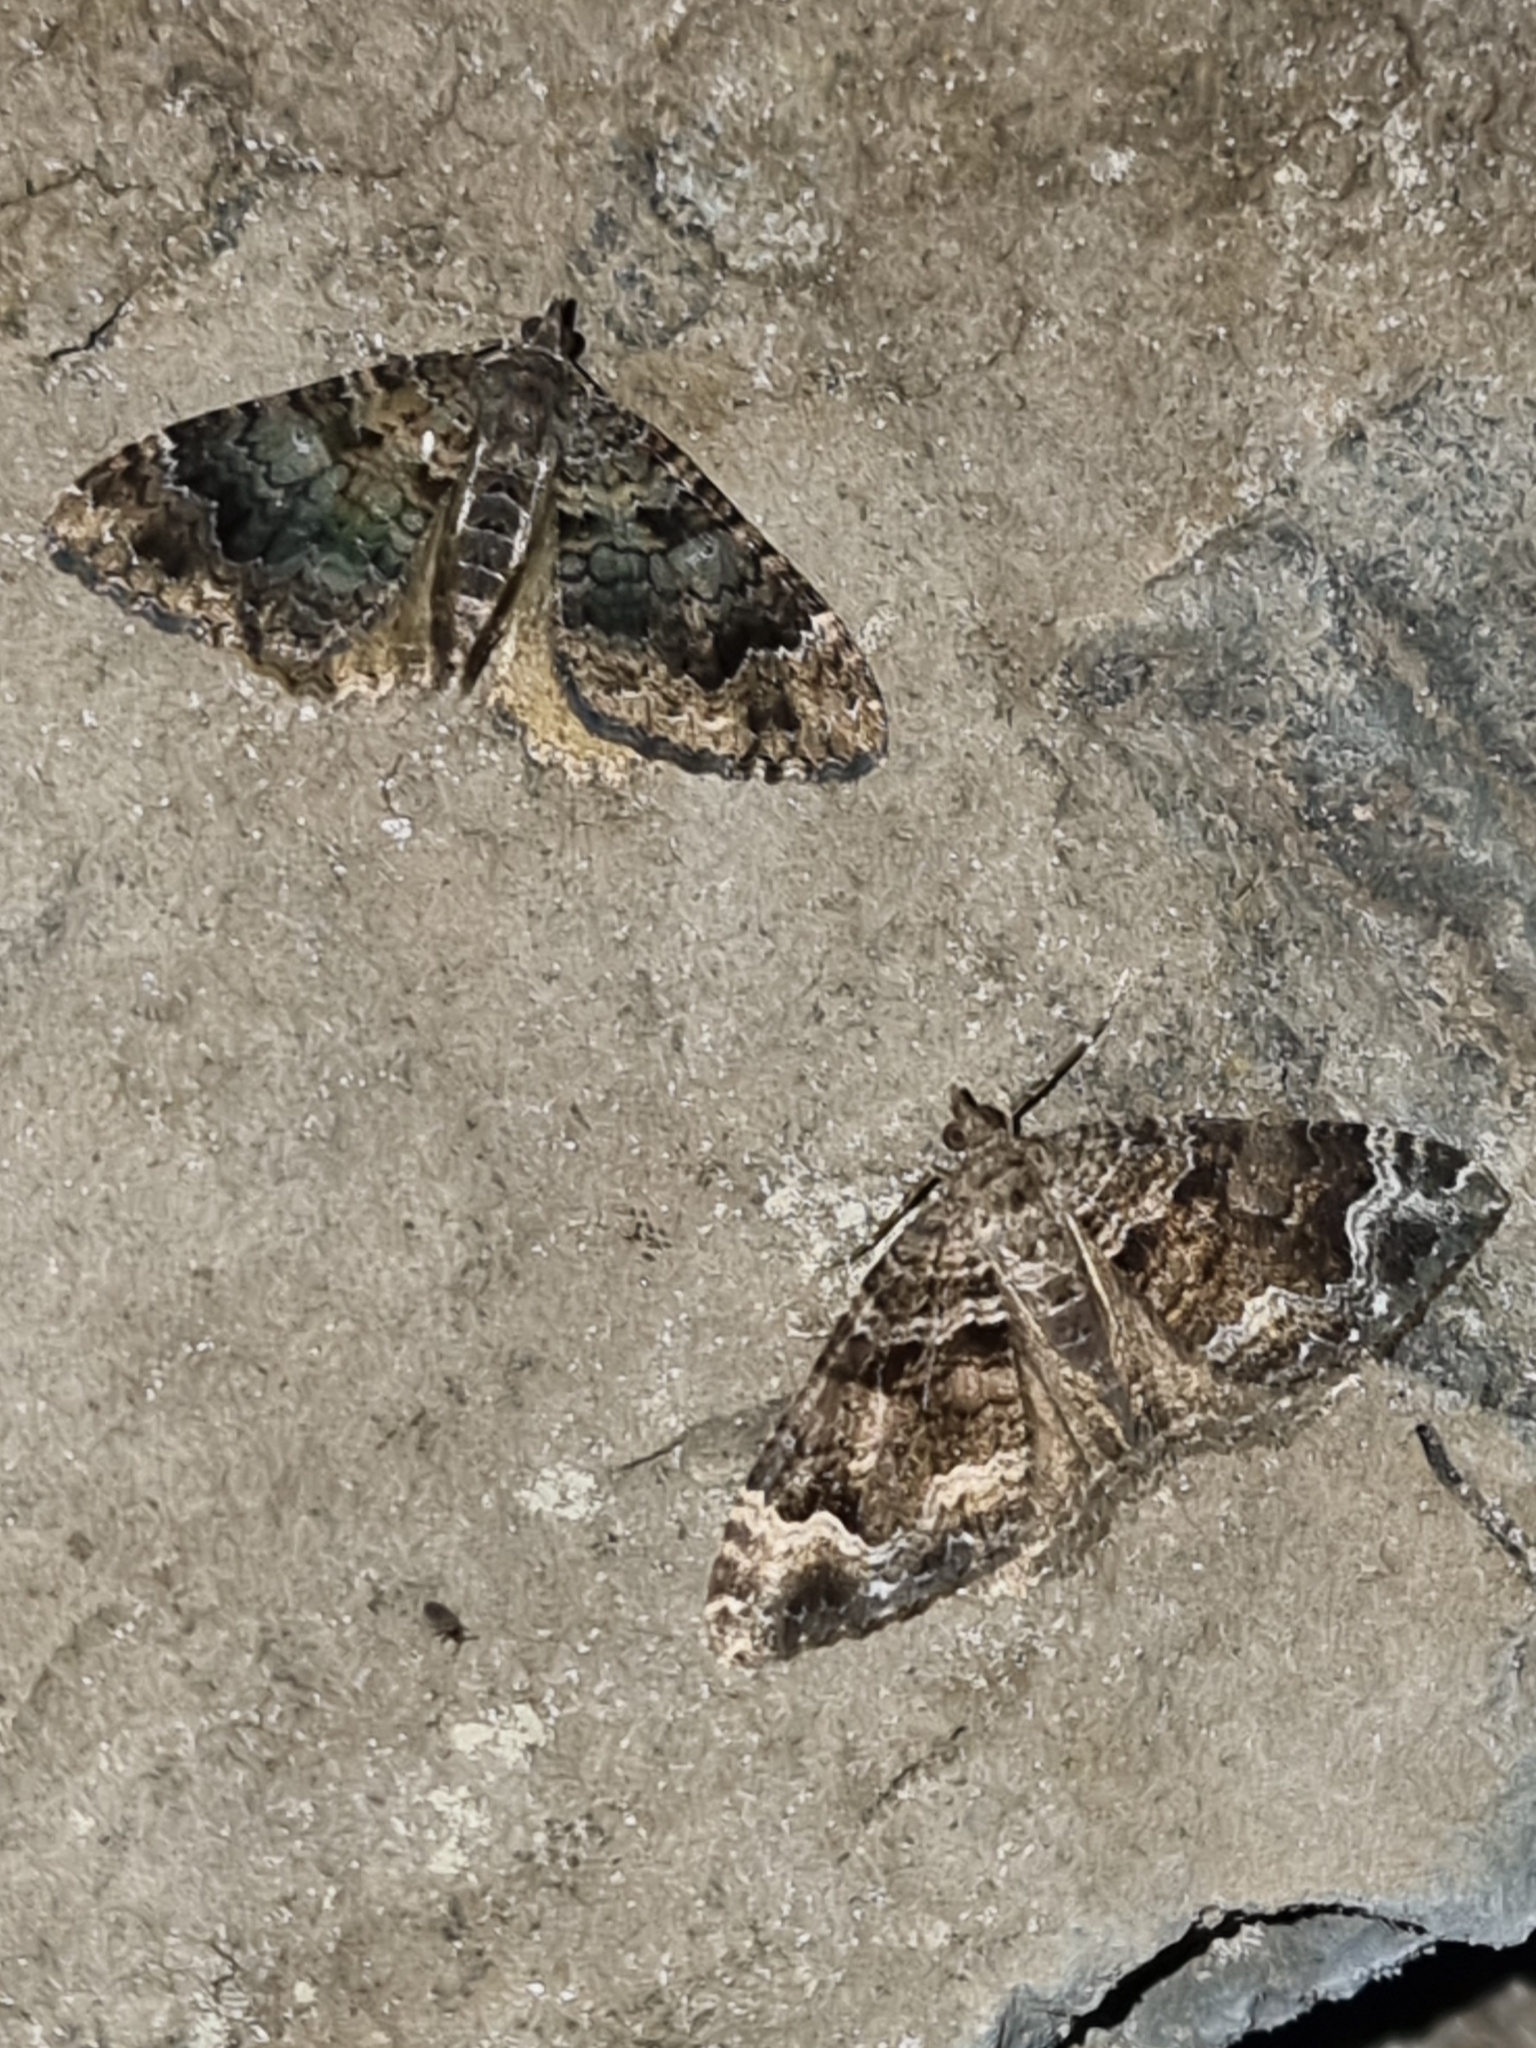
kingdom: Animalia
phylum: Arthropoda
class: Insecta
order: Lepidoptera
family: Geometridae
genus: Xanthorhoe
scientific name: Xanthorhoe rupicola
